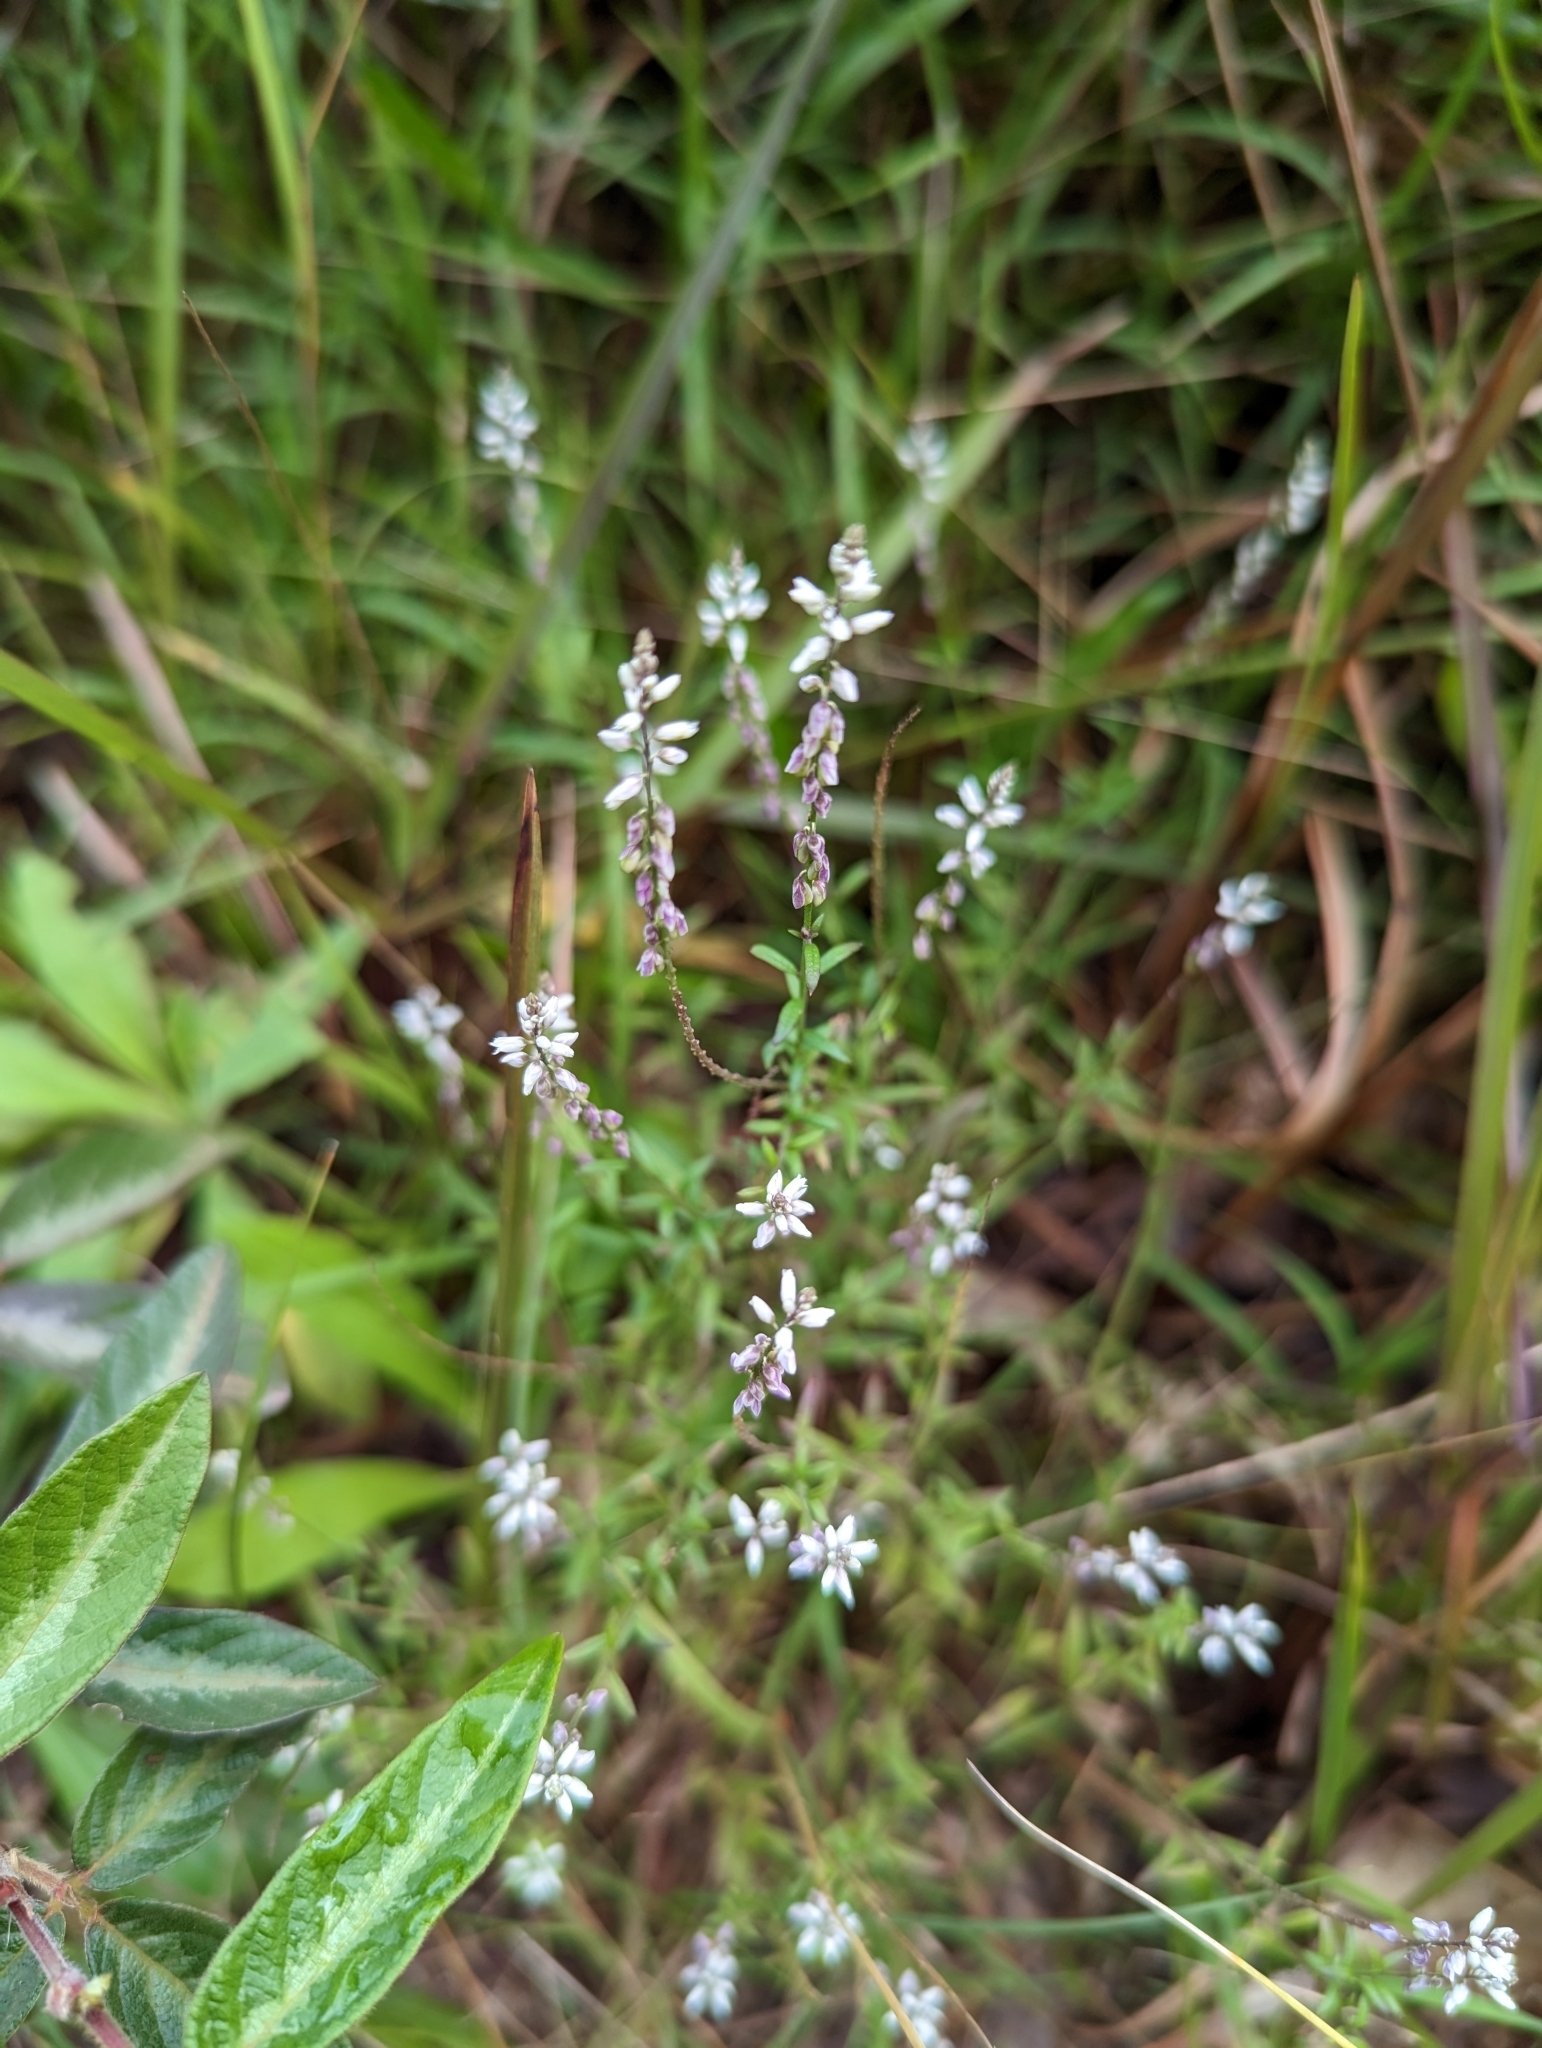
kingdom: Plantae
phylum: Tracheophyta
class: Magnoliopsida
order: Fabales
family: Polygalaceae
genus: Polygala
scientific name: Polygala paniculata
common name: Orosne
